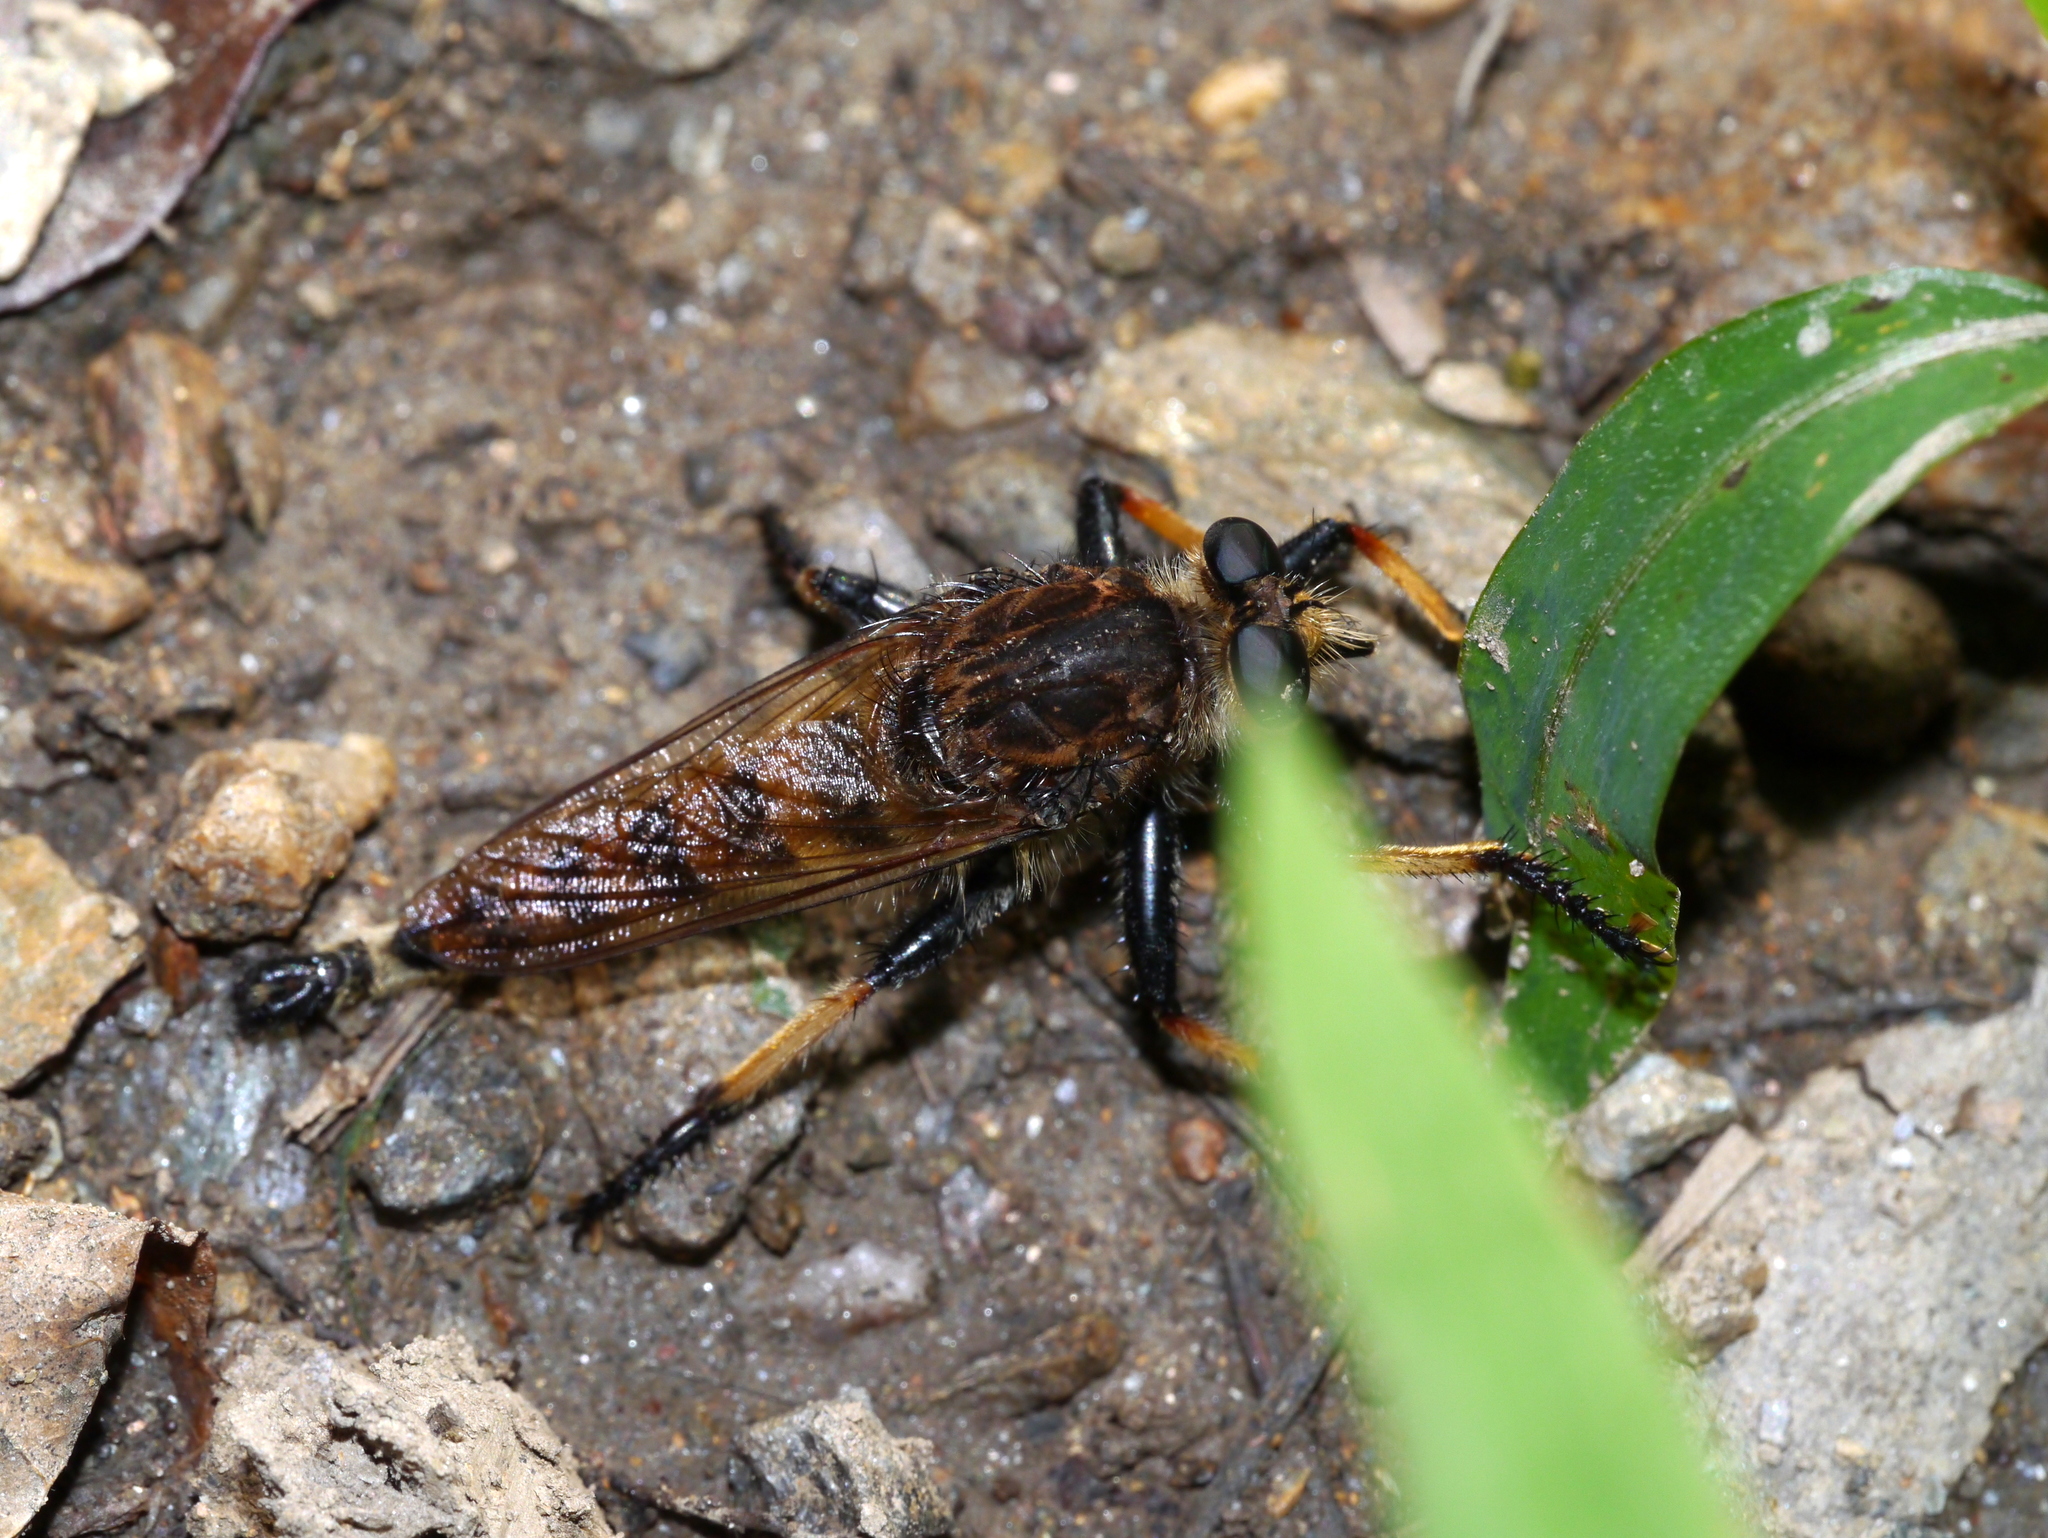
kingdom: Animalia
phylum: Arthropoda
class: Insecta
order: Diptera
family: Asilidae
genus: Promachus
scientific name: Promachus rufipes
